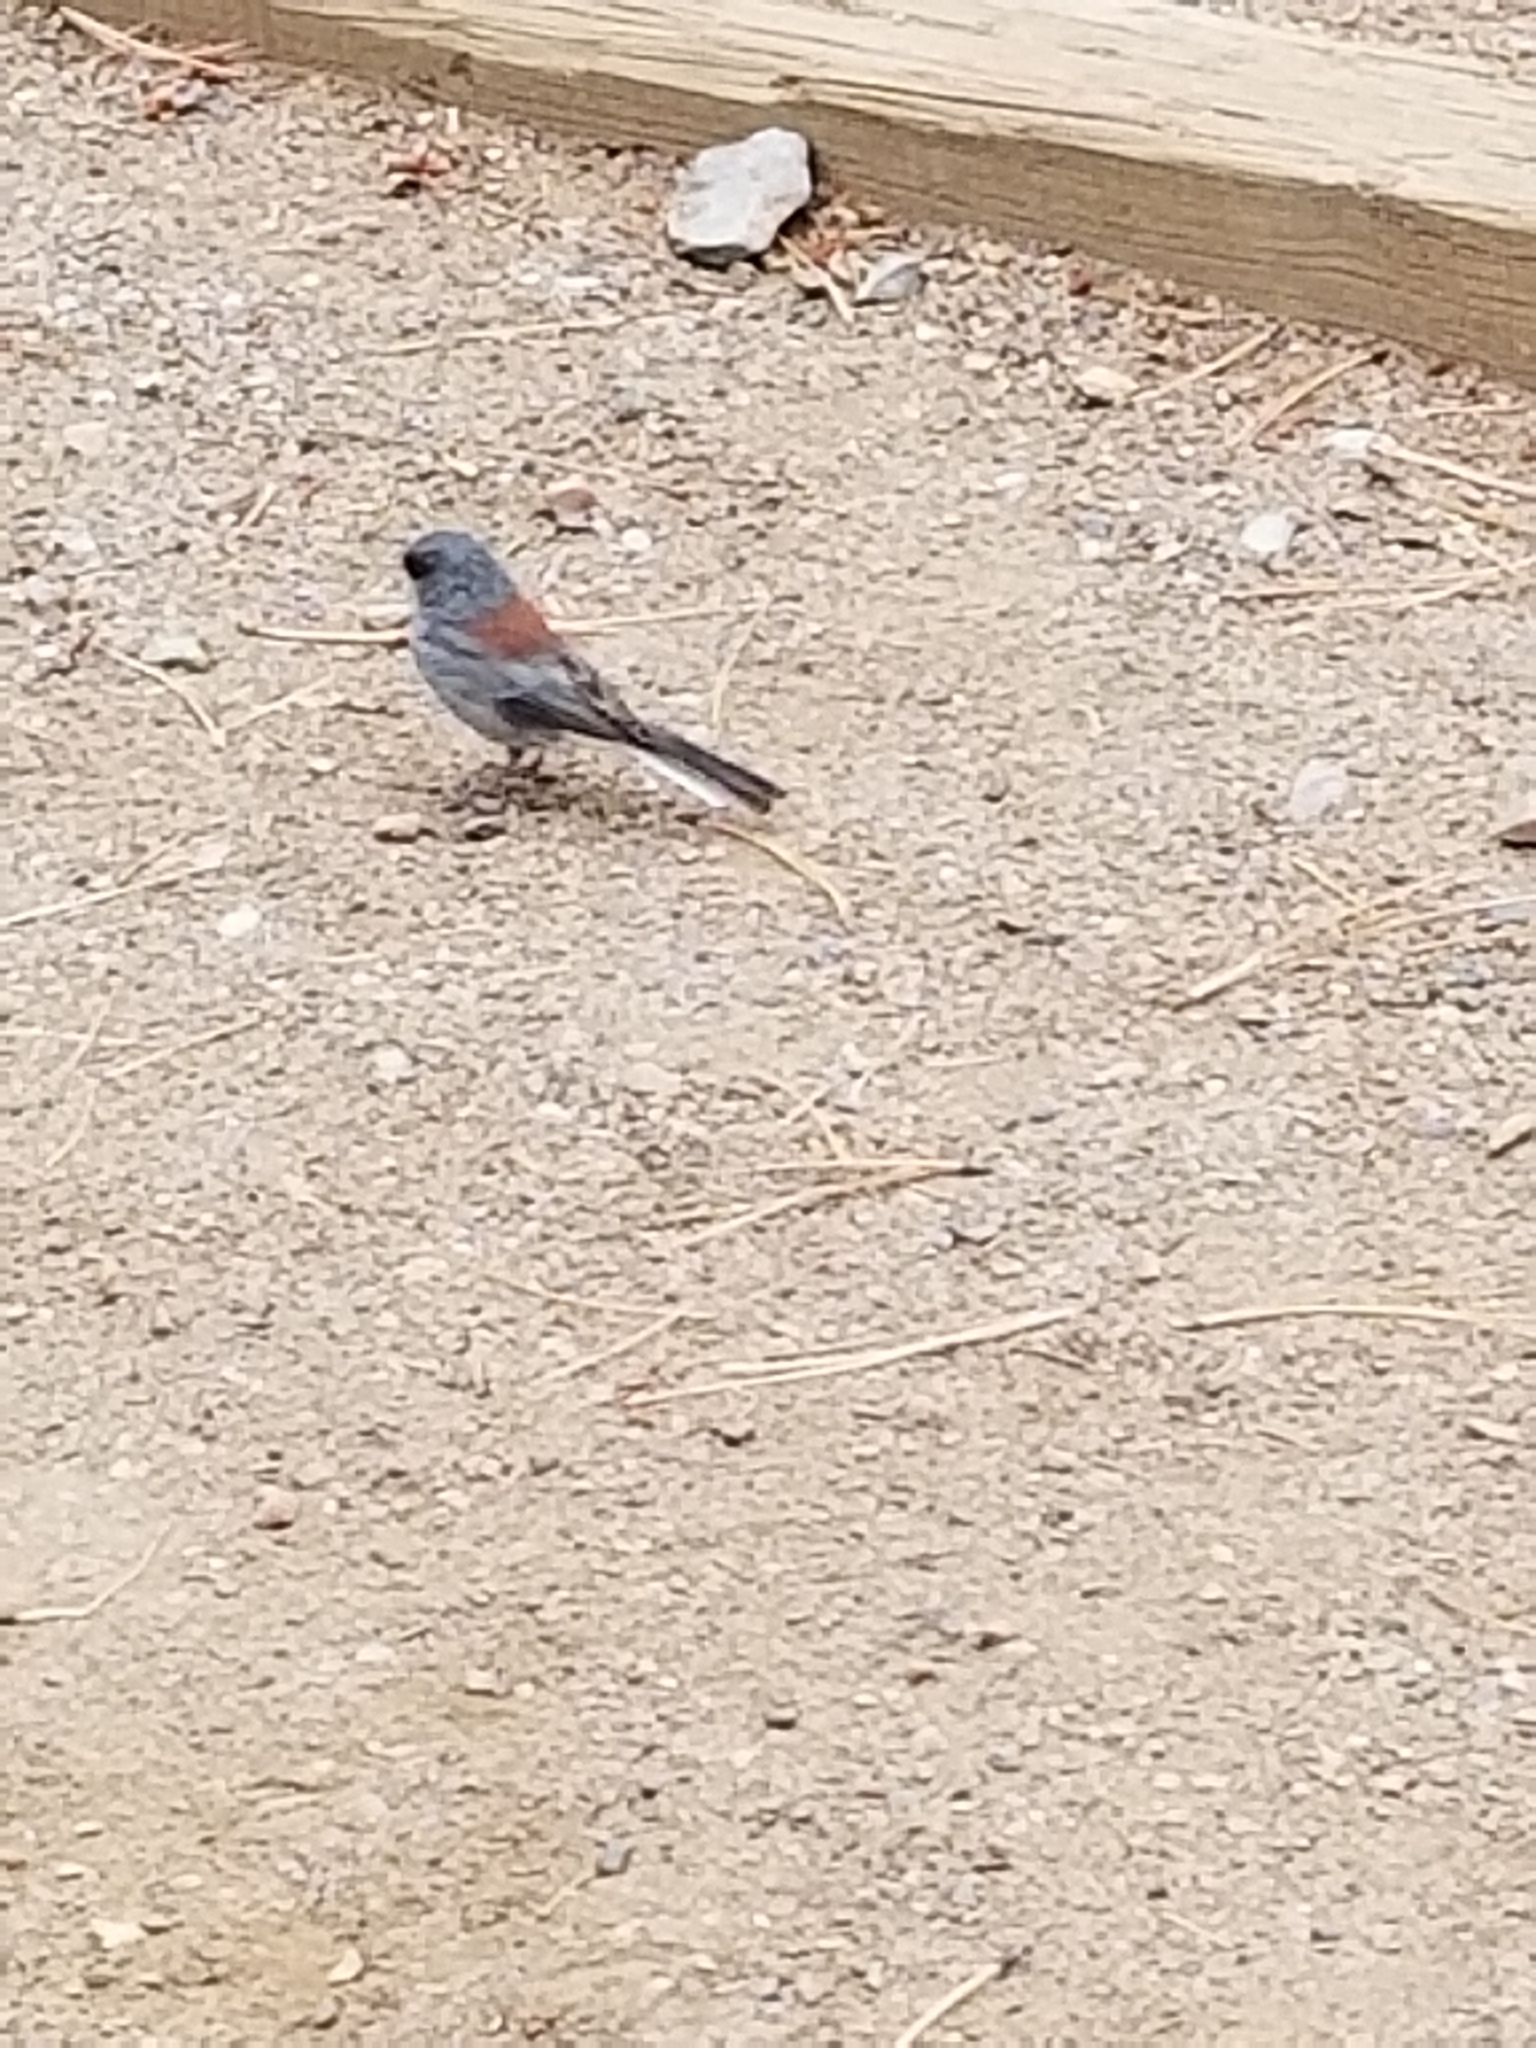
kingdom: Animalia
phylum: Chordata
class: Aves
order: Passeriformes
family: Passerellidae
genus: Junco
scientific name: Junco hyemalis
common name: Dark-eyed junco
